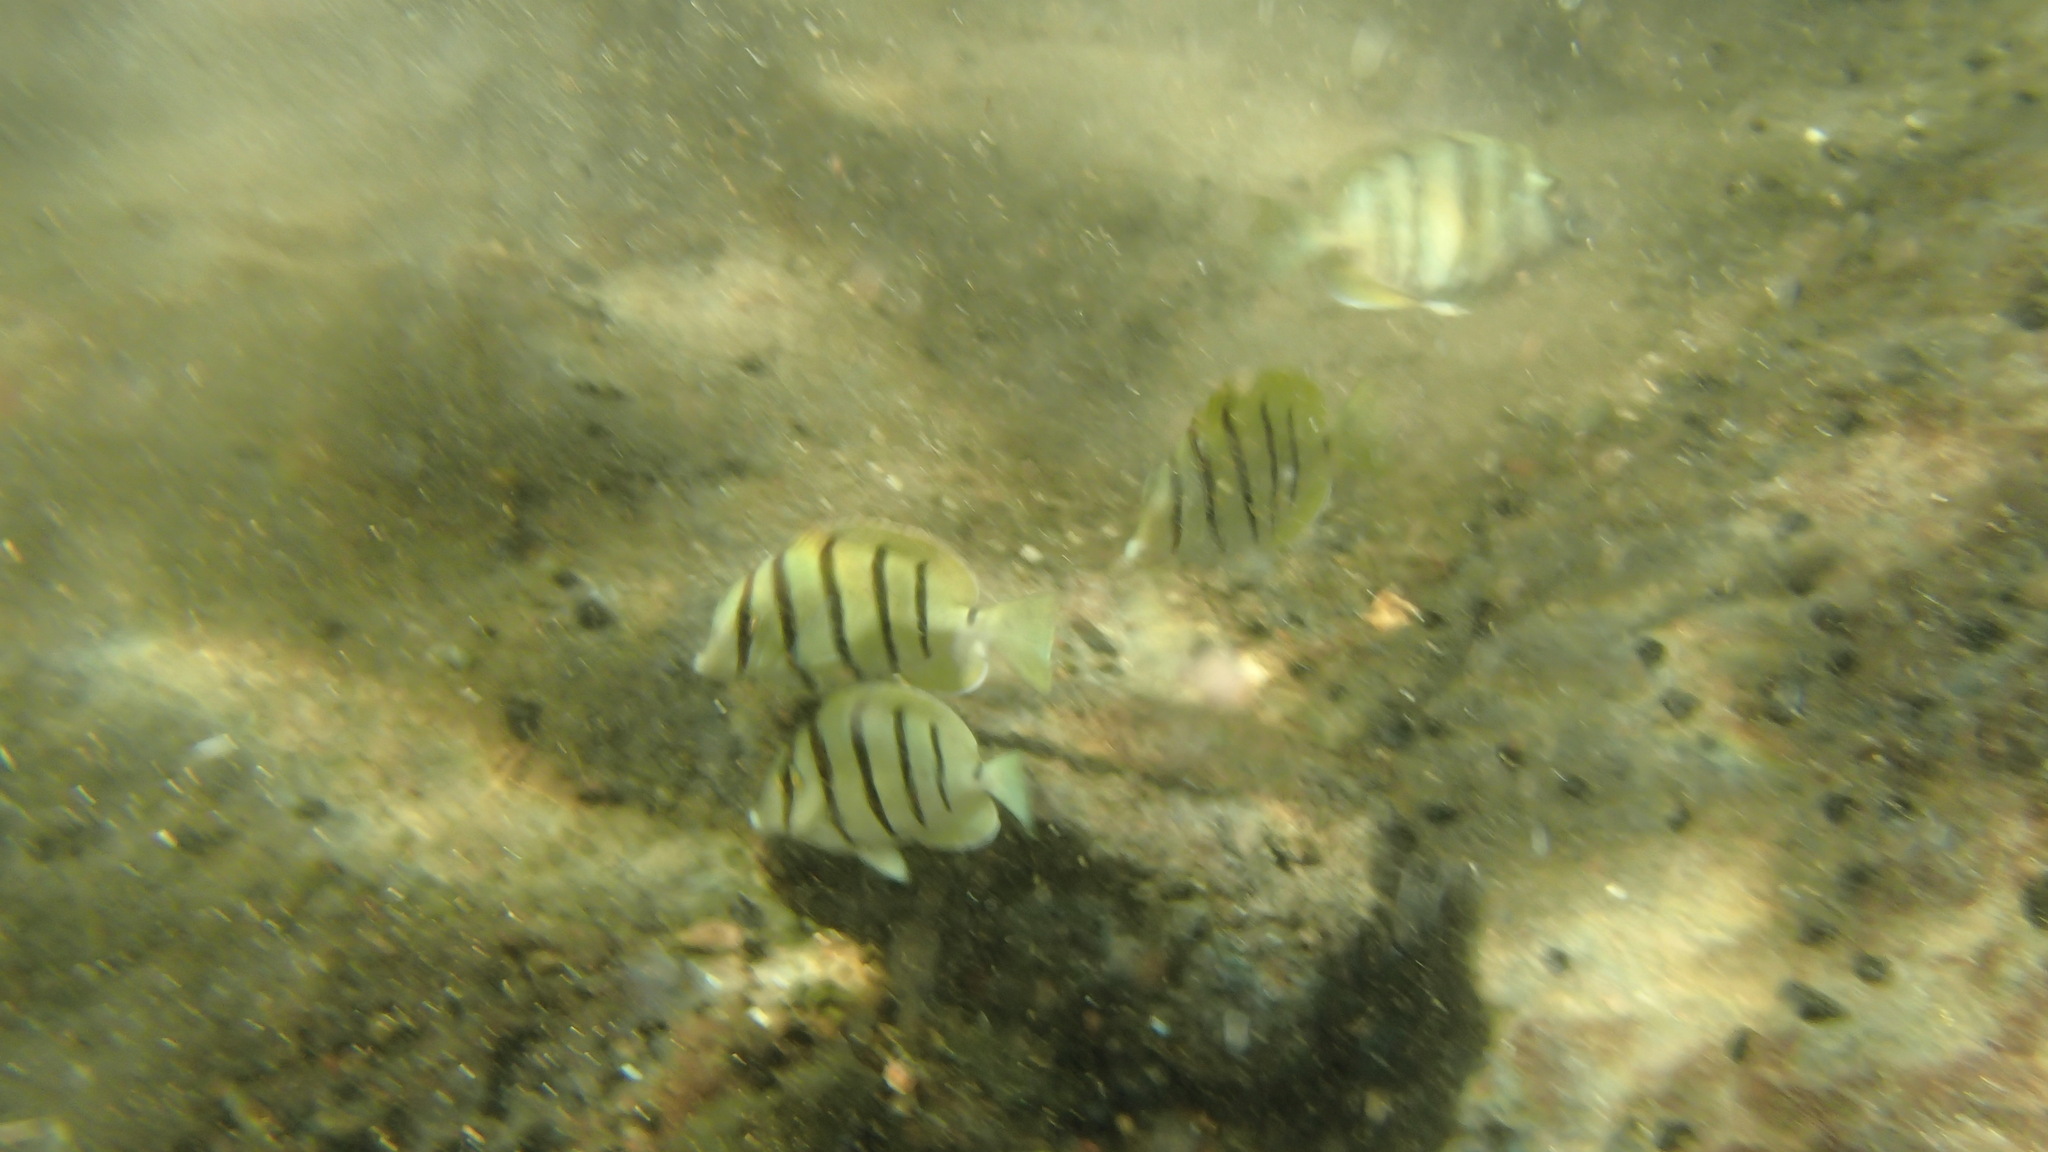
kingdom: Animalia
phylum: Chordata
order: Perciformes
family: Acanthuridae
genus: Acanthurus
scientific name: Acanthurus triostegus
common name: Convict surgeonfish
